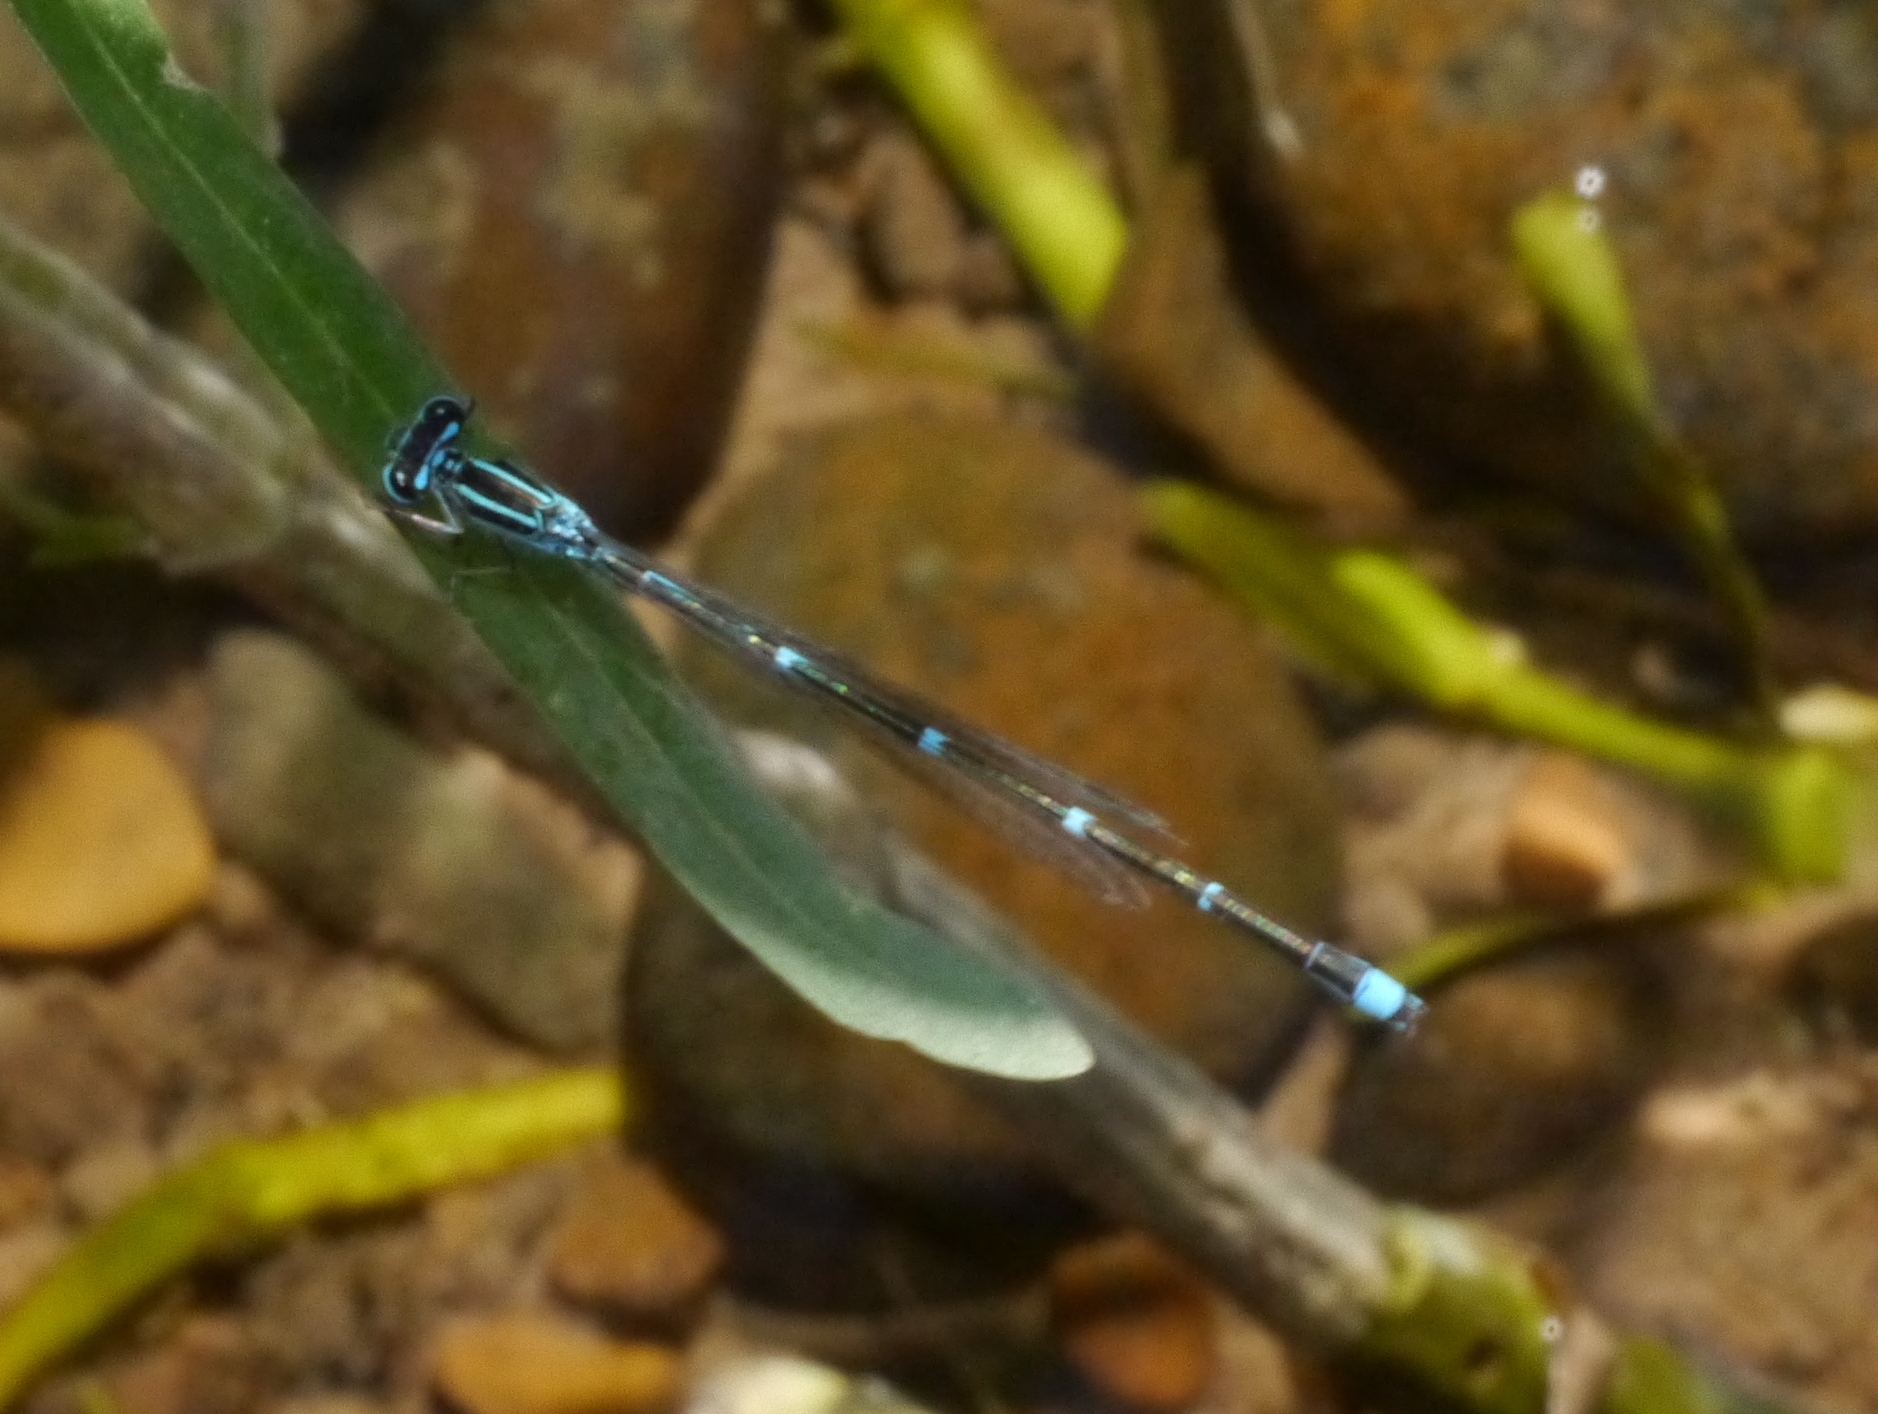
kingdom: Animalia
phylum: Arthropoda
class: Insecta
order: Odonata
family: Coenagrionidae
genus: Enallagma
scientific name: Enallagma exsulans
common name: Stream bluet
